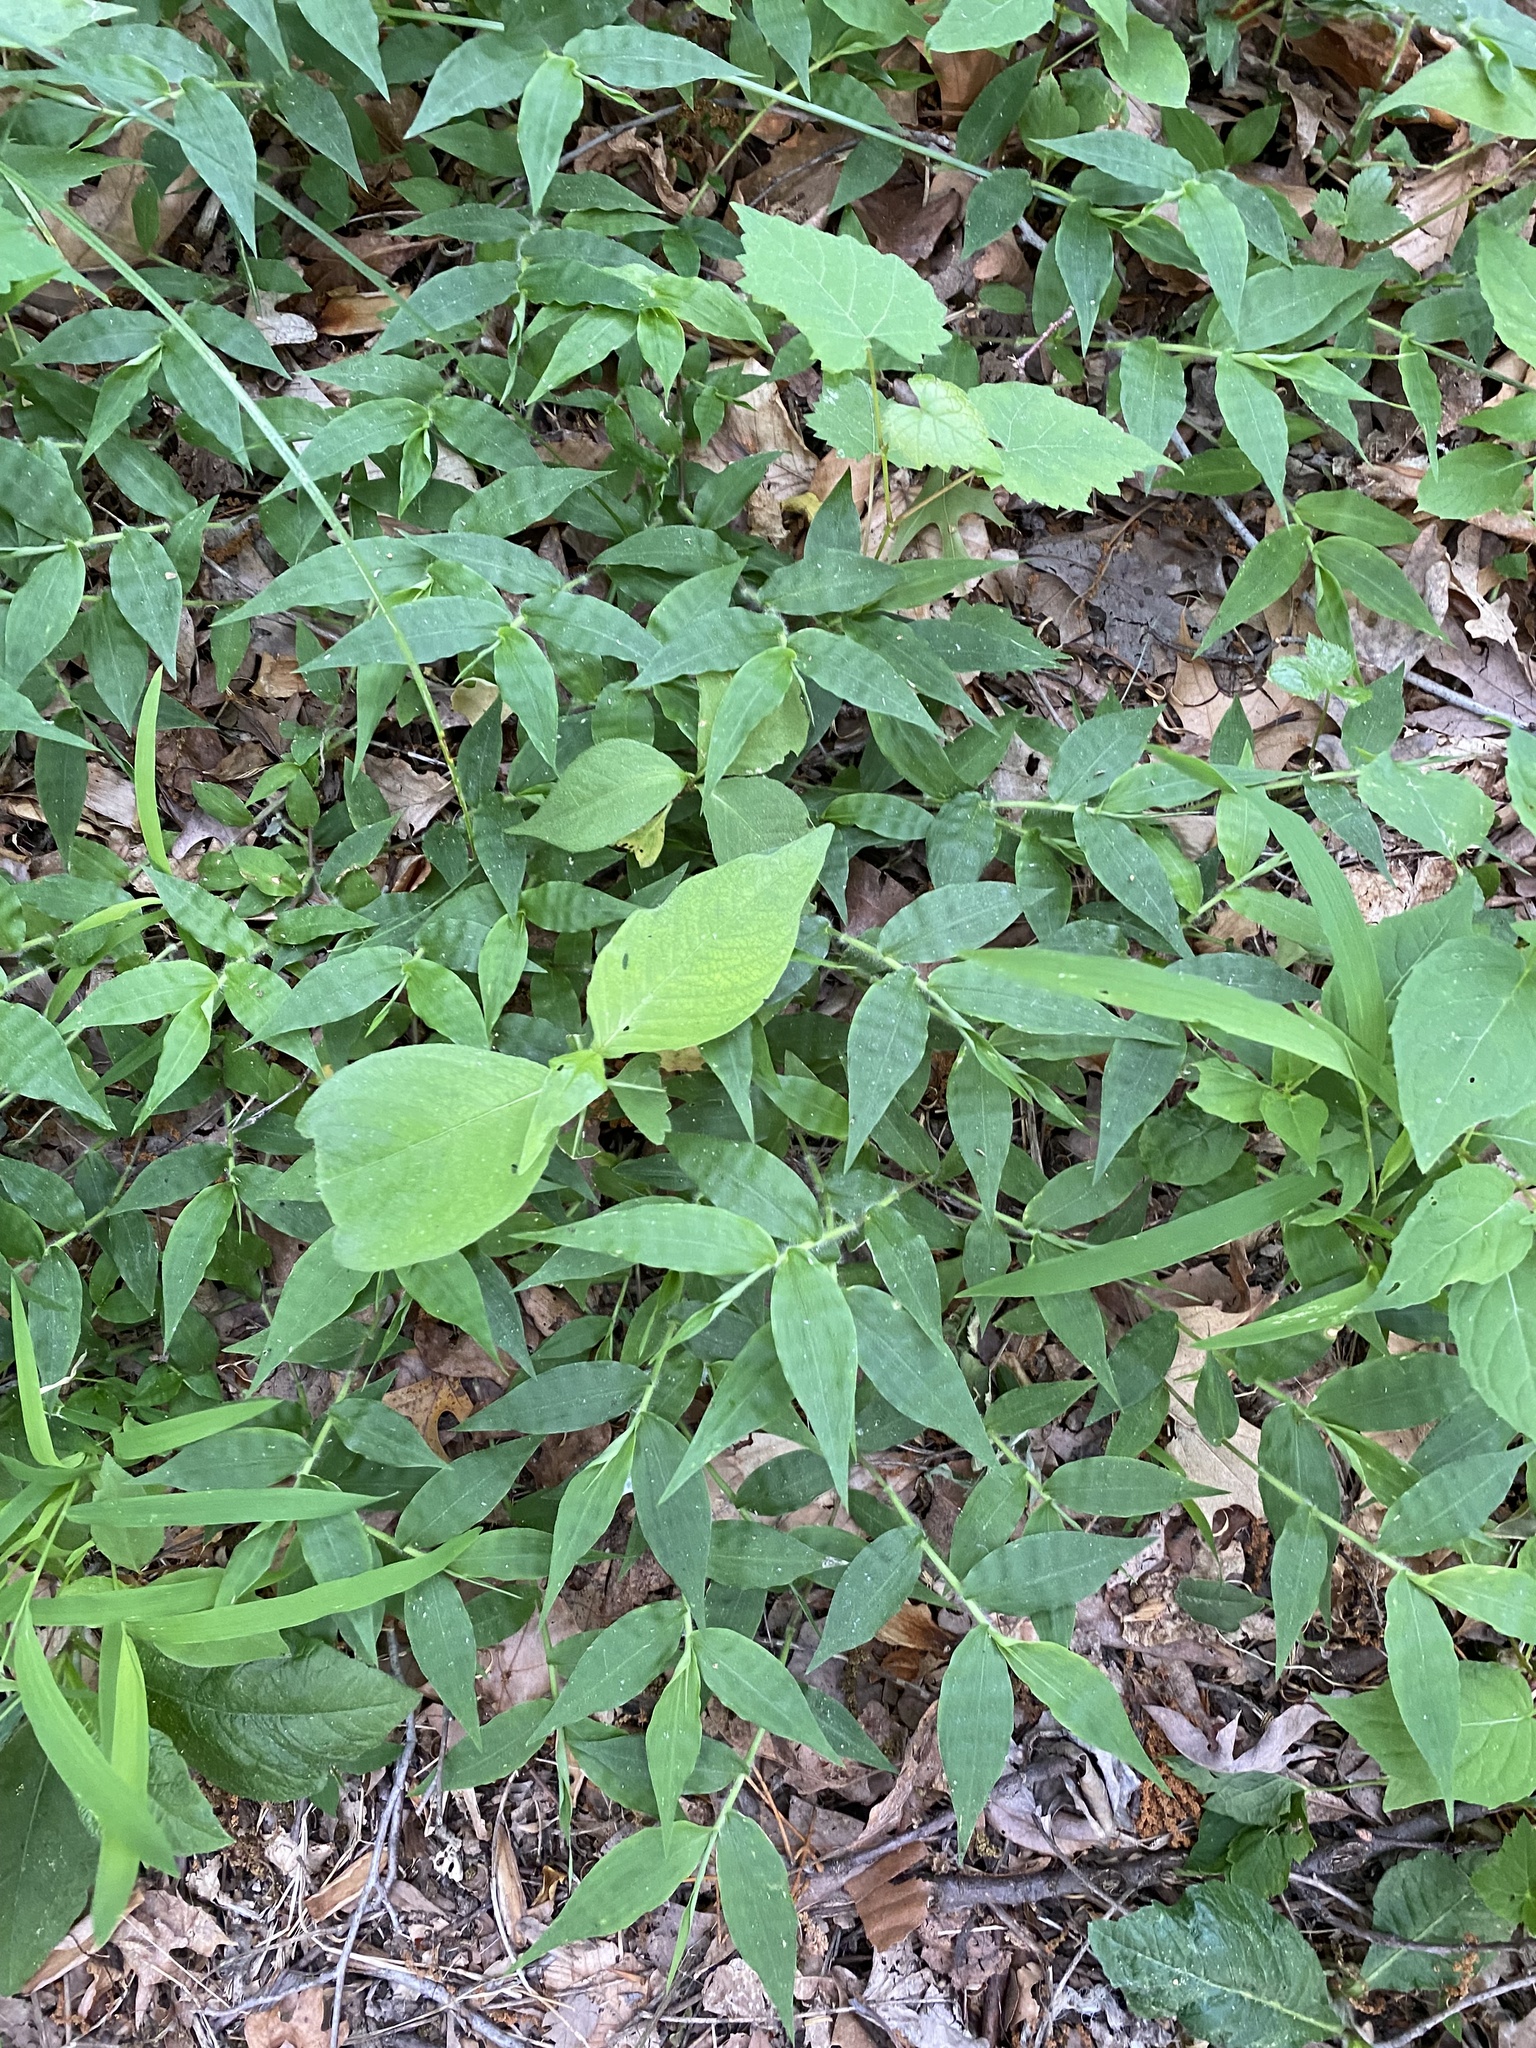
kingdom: Plantae
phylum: Tracheophyta
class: Liliopsida
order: Poales
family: Poaceae
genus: Oplismenus
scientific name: Oplismenus undulatifolius
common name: Wavyleaf basketgrass
